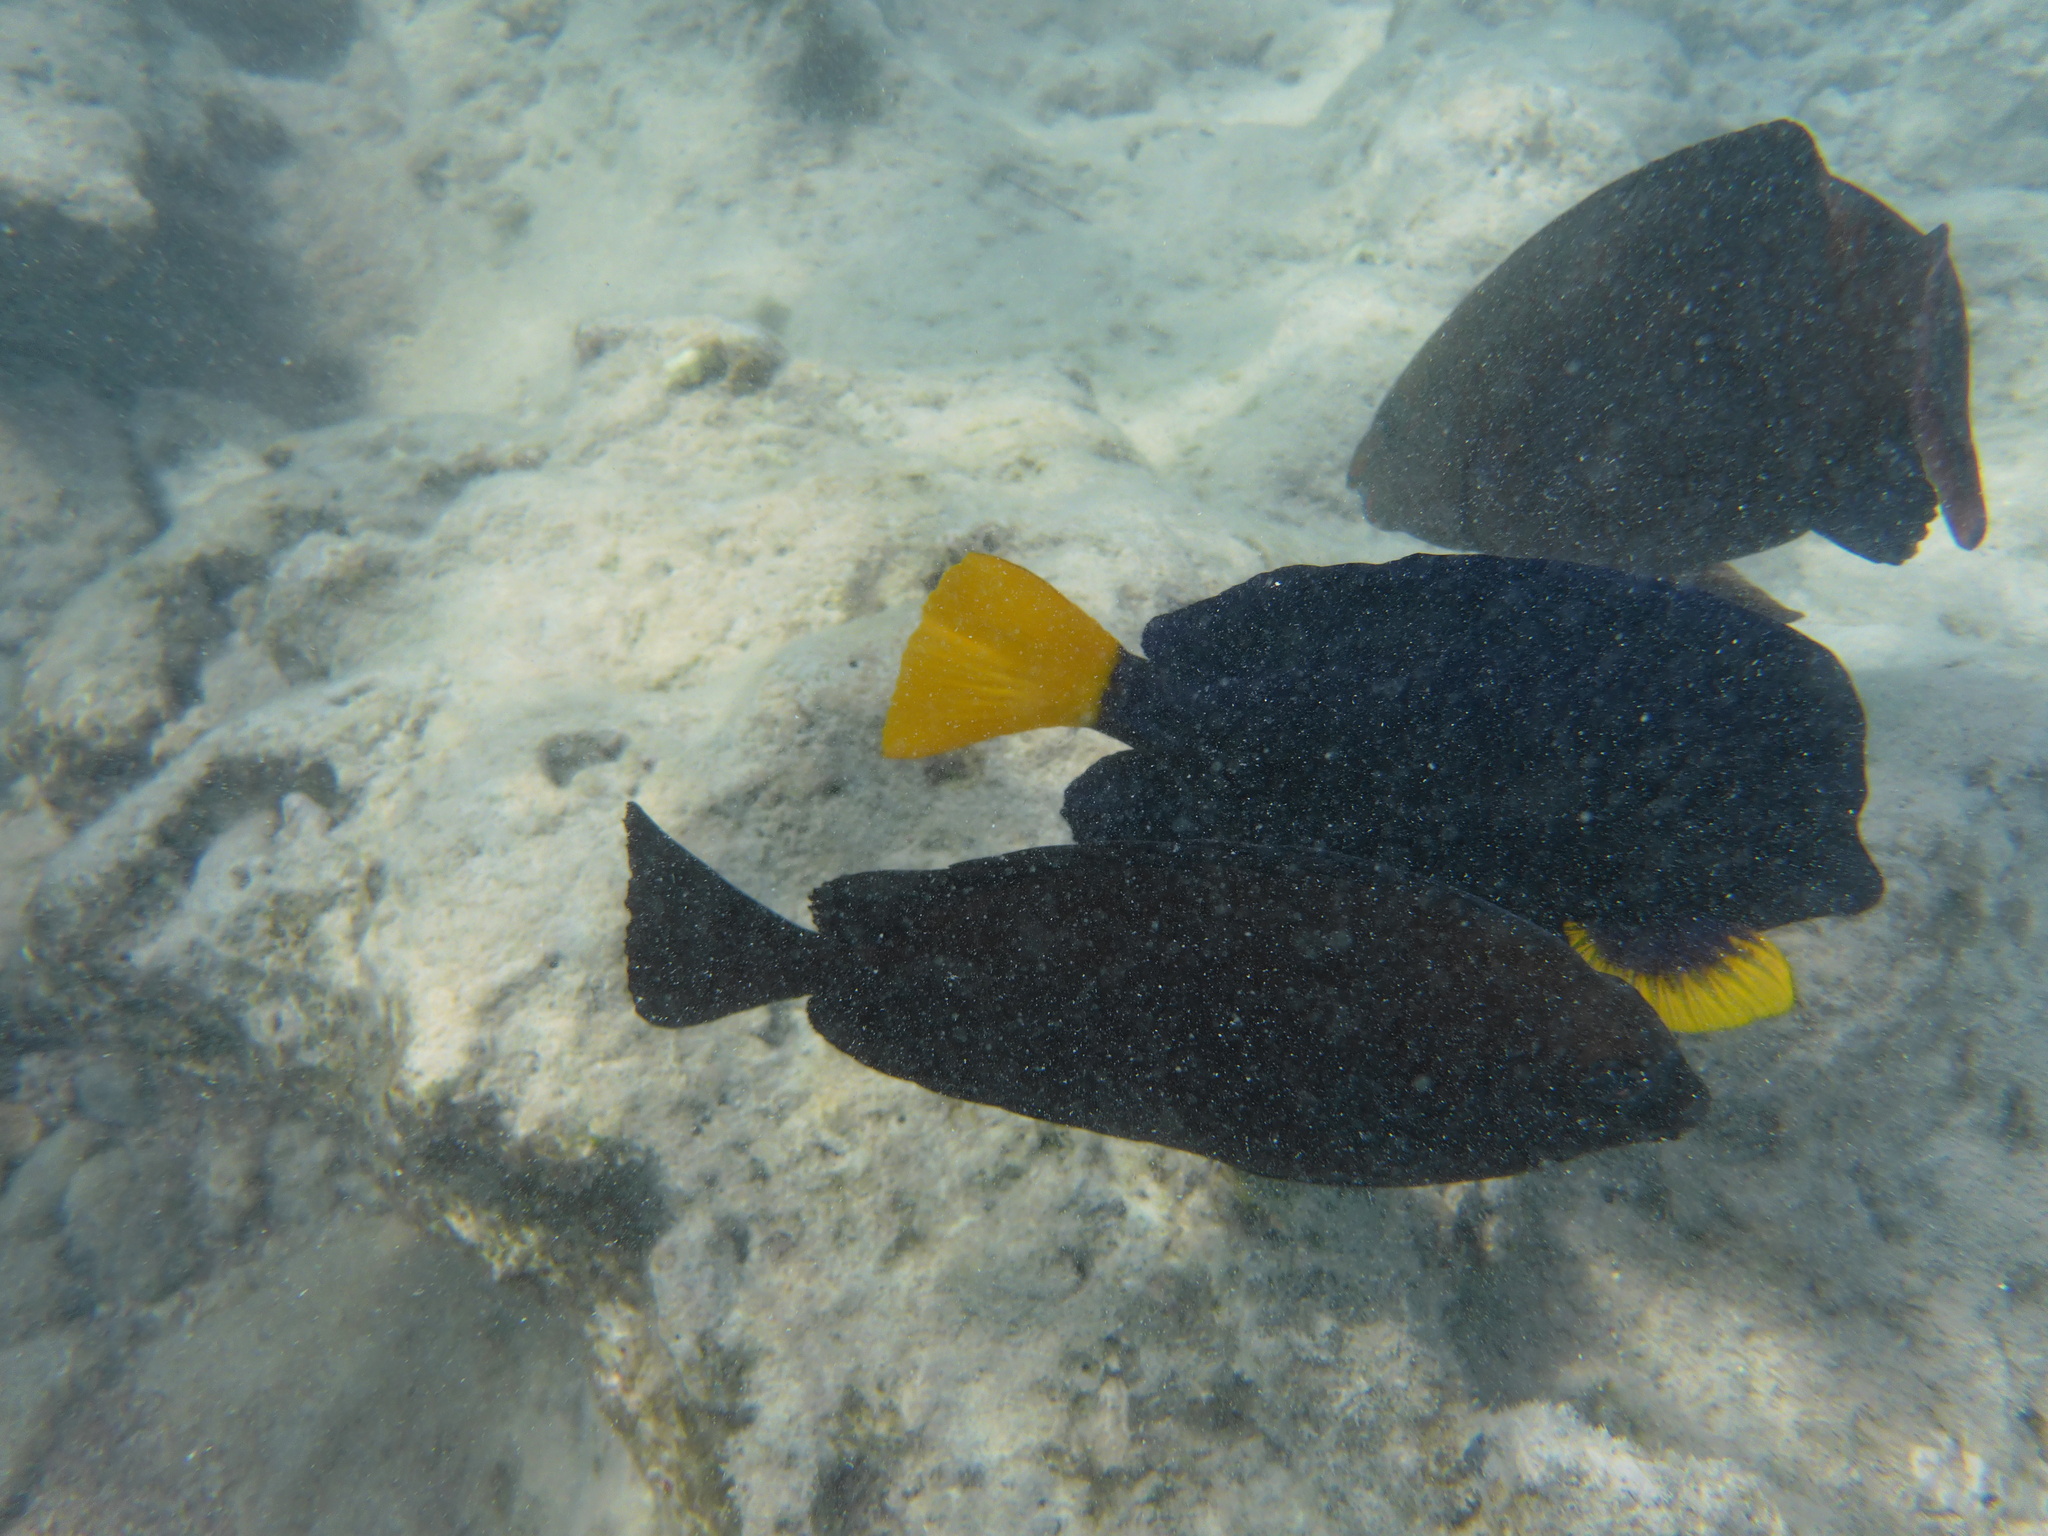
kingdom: Animalia
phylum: Chordata
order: Perciformes
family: Acanthuridae
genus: Zebrasoma
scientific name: Zebrasoma xanthurum
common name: Purple tang
